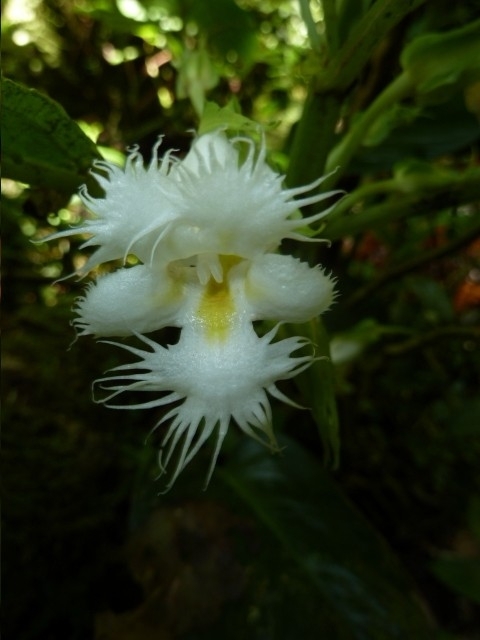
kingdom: Plantae
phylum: Tracheophyta
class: Magnoliopsida
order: Lamiales
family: Gesneriaceae
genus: Drymonia
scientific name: Drymonia lanceolata
